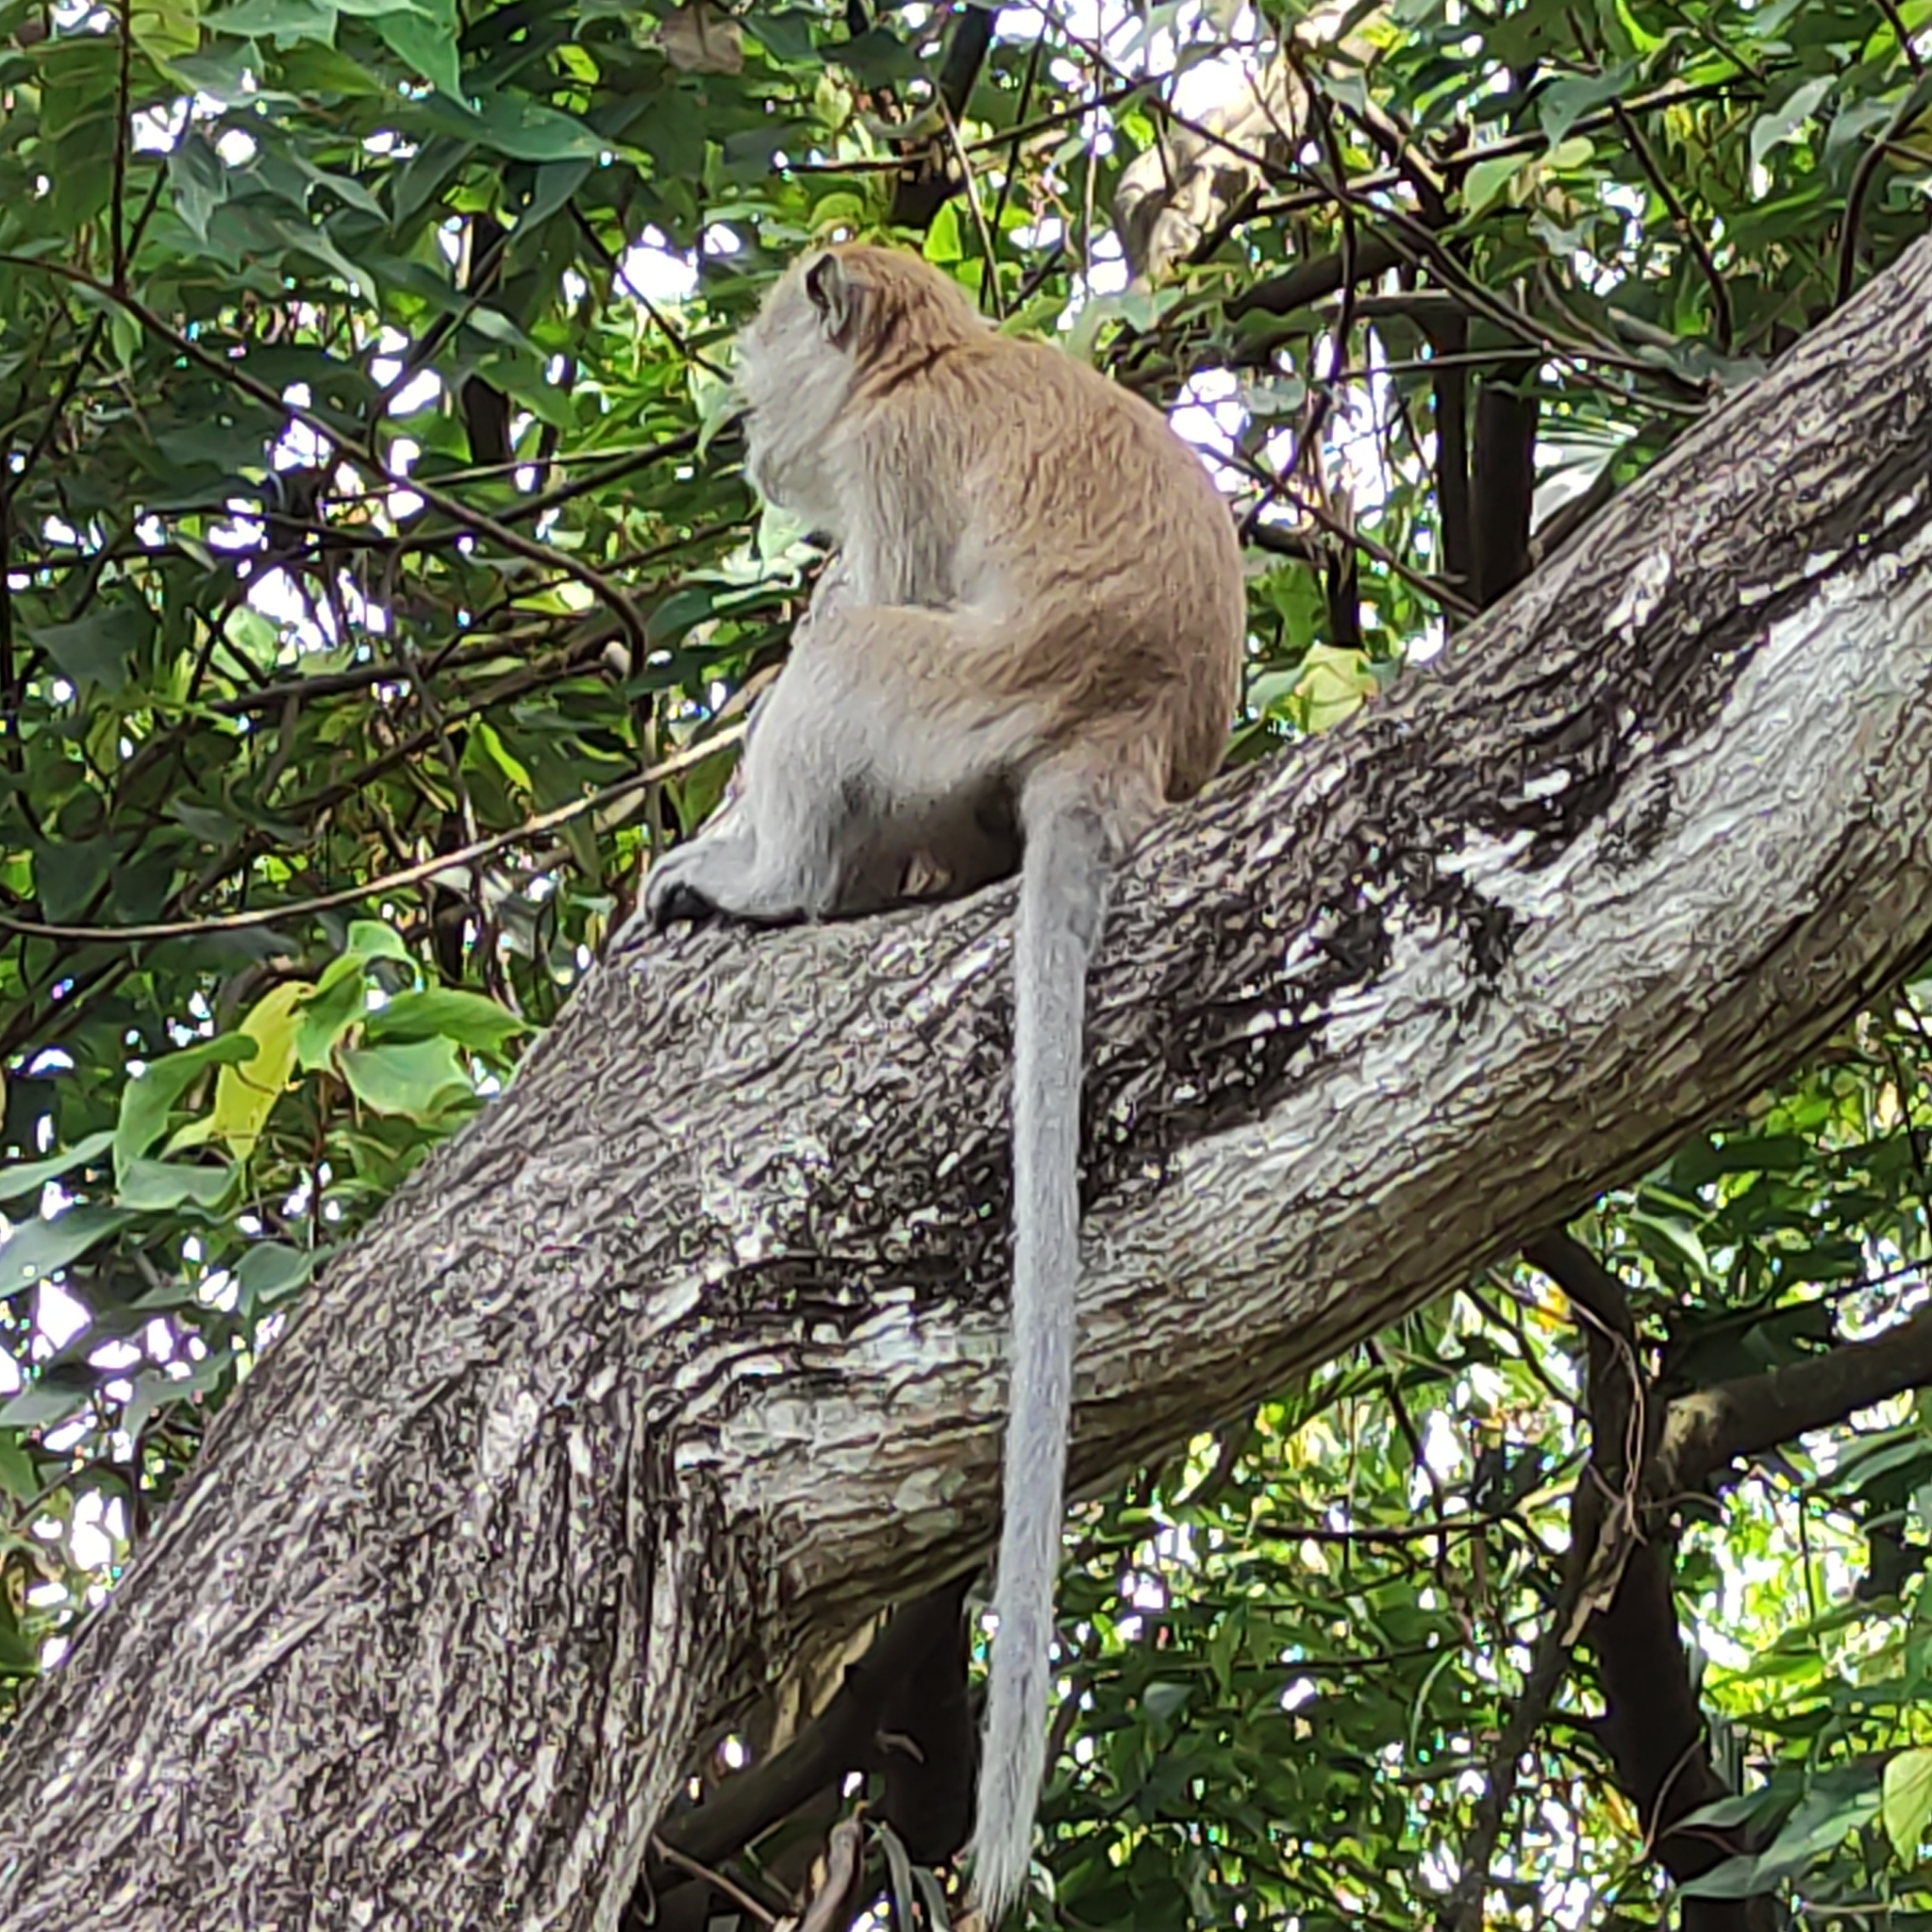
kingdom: Animalia
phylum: Chordata
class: Mammalia
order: Primates
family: Cercopithecidae
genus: Macaca
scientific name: Macaca fascicularis
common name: Crab-eating macaque
